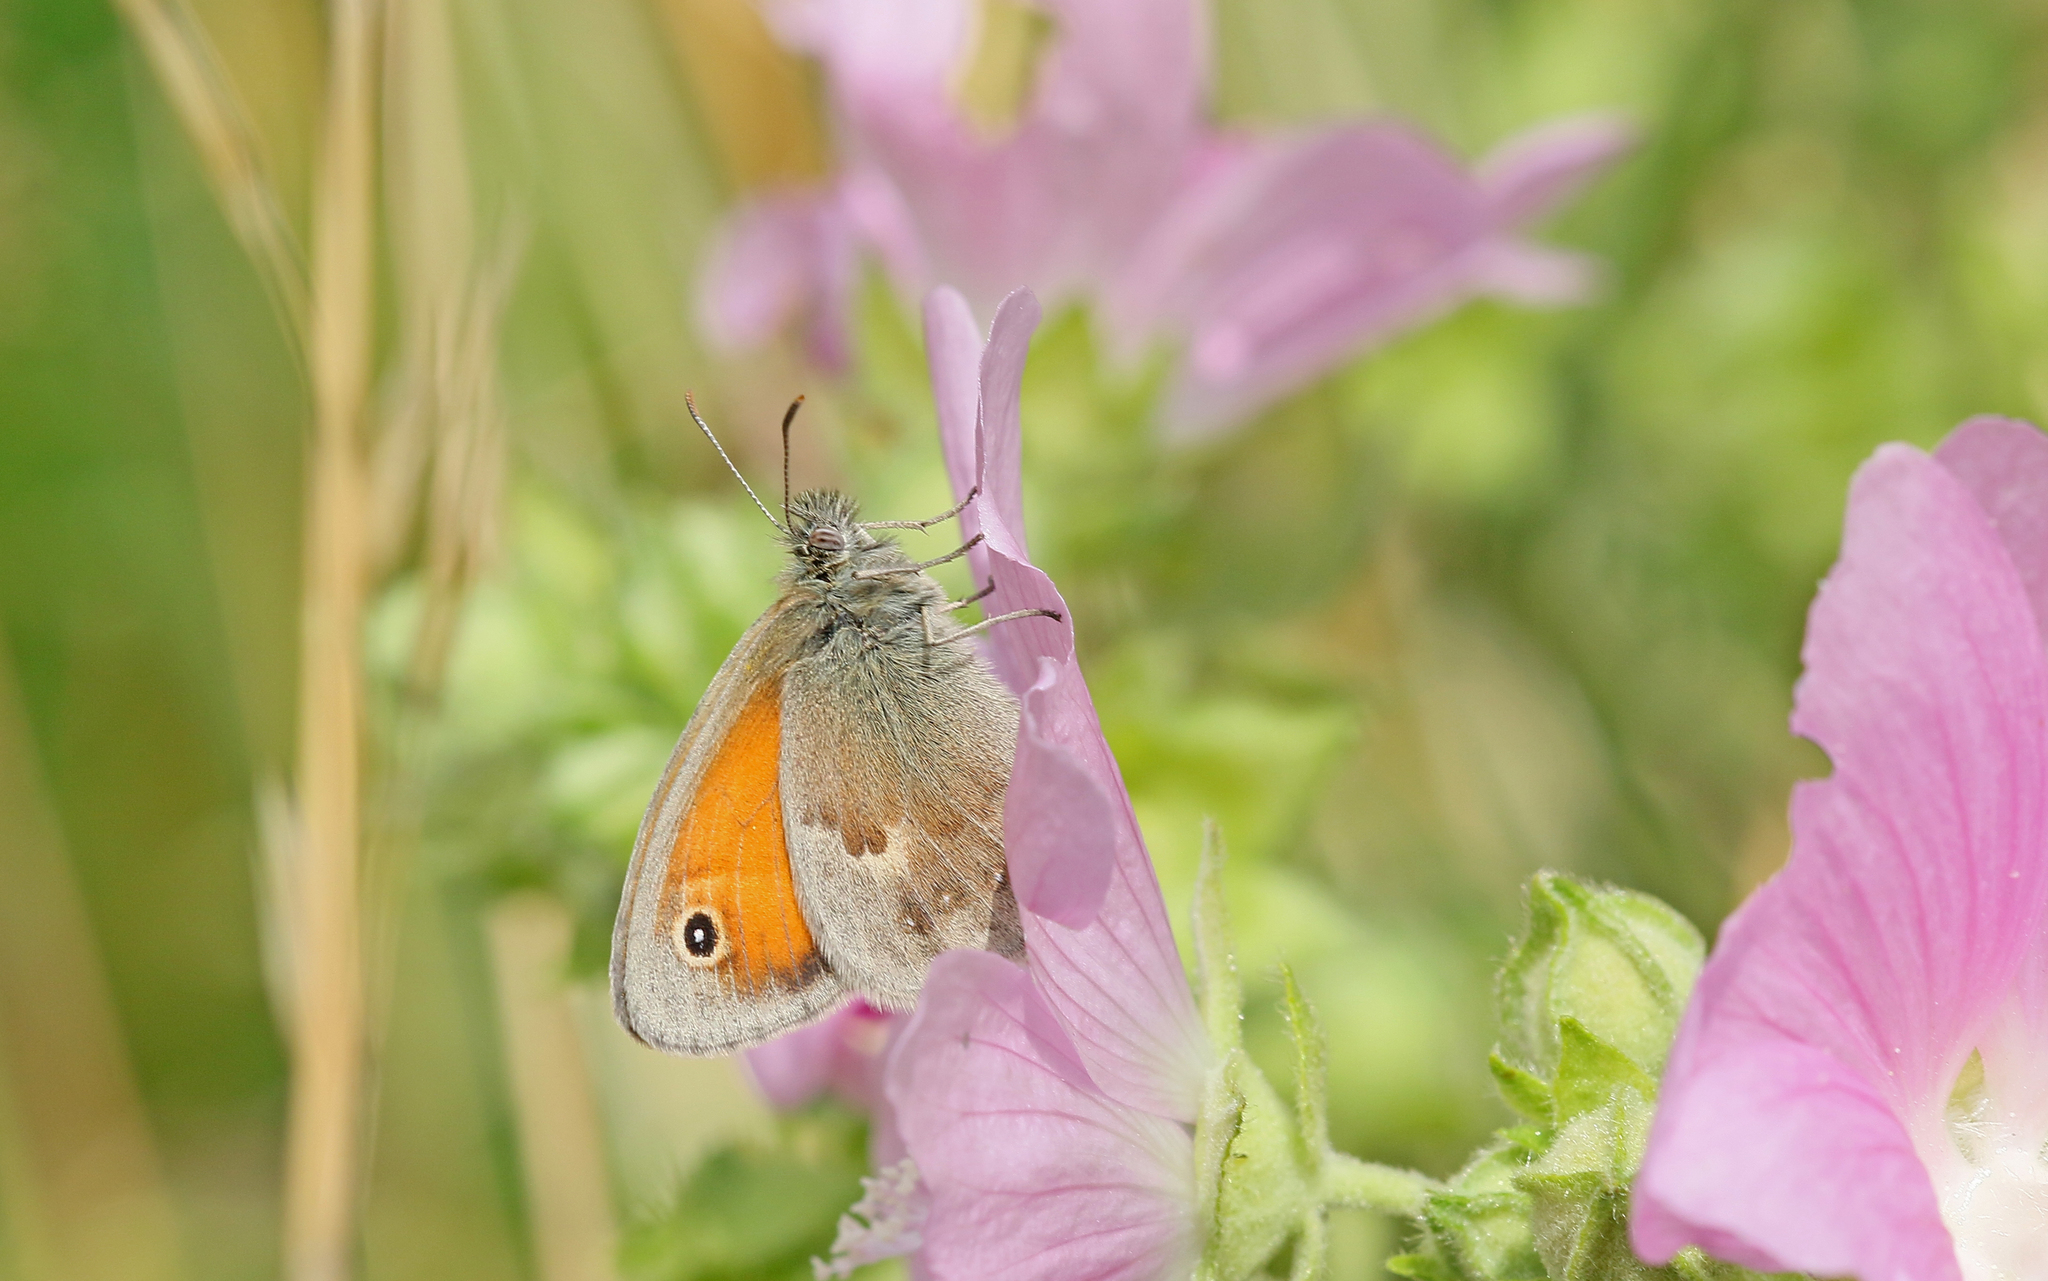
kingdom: Animalia
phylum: Arthropoda
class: Insecta
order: Lepidoptera
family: Nymphalidae
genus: Coenonympha
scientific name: Coenonympha pamphilus
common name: Small heath
